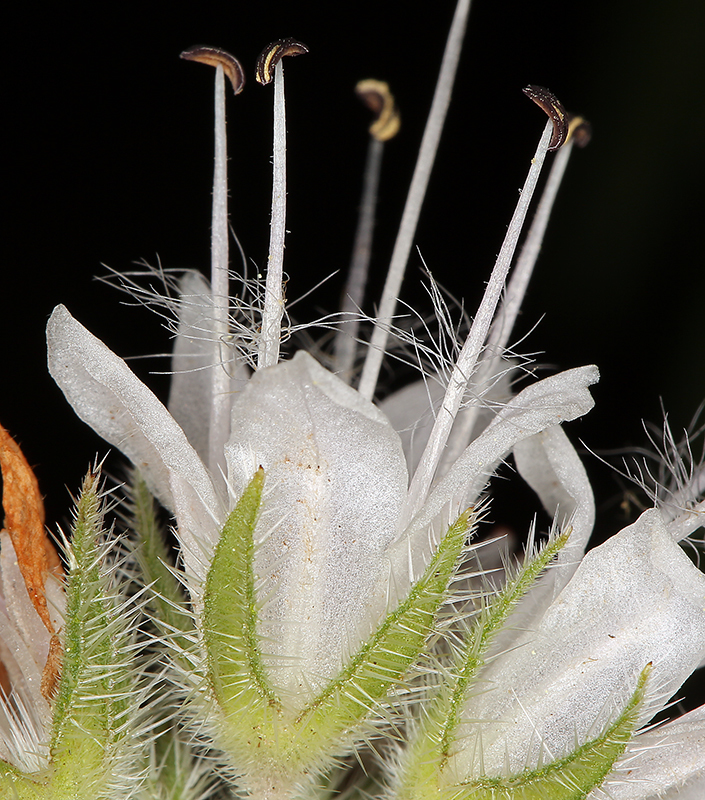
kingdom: Plantae
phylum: Tracheophyta
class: Magnoliopsida
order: Boraginales
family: Hydrophyllaceae
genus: Hydrophyllum
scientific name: Hydrophyllum occidentale
